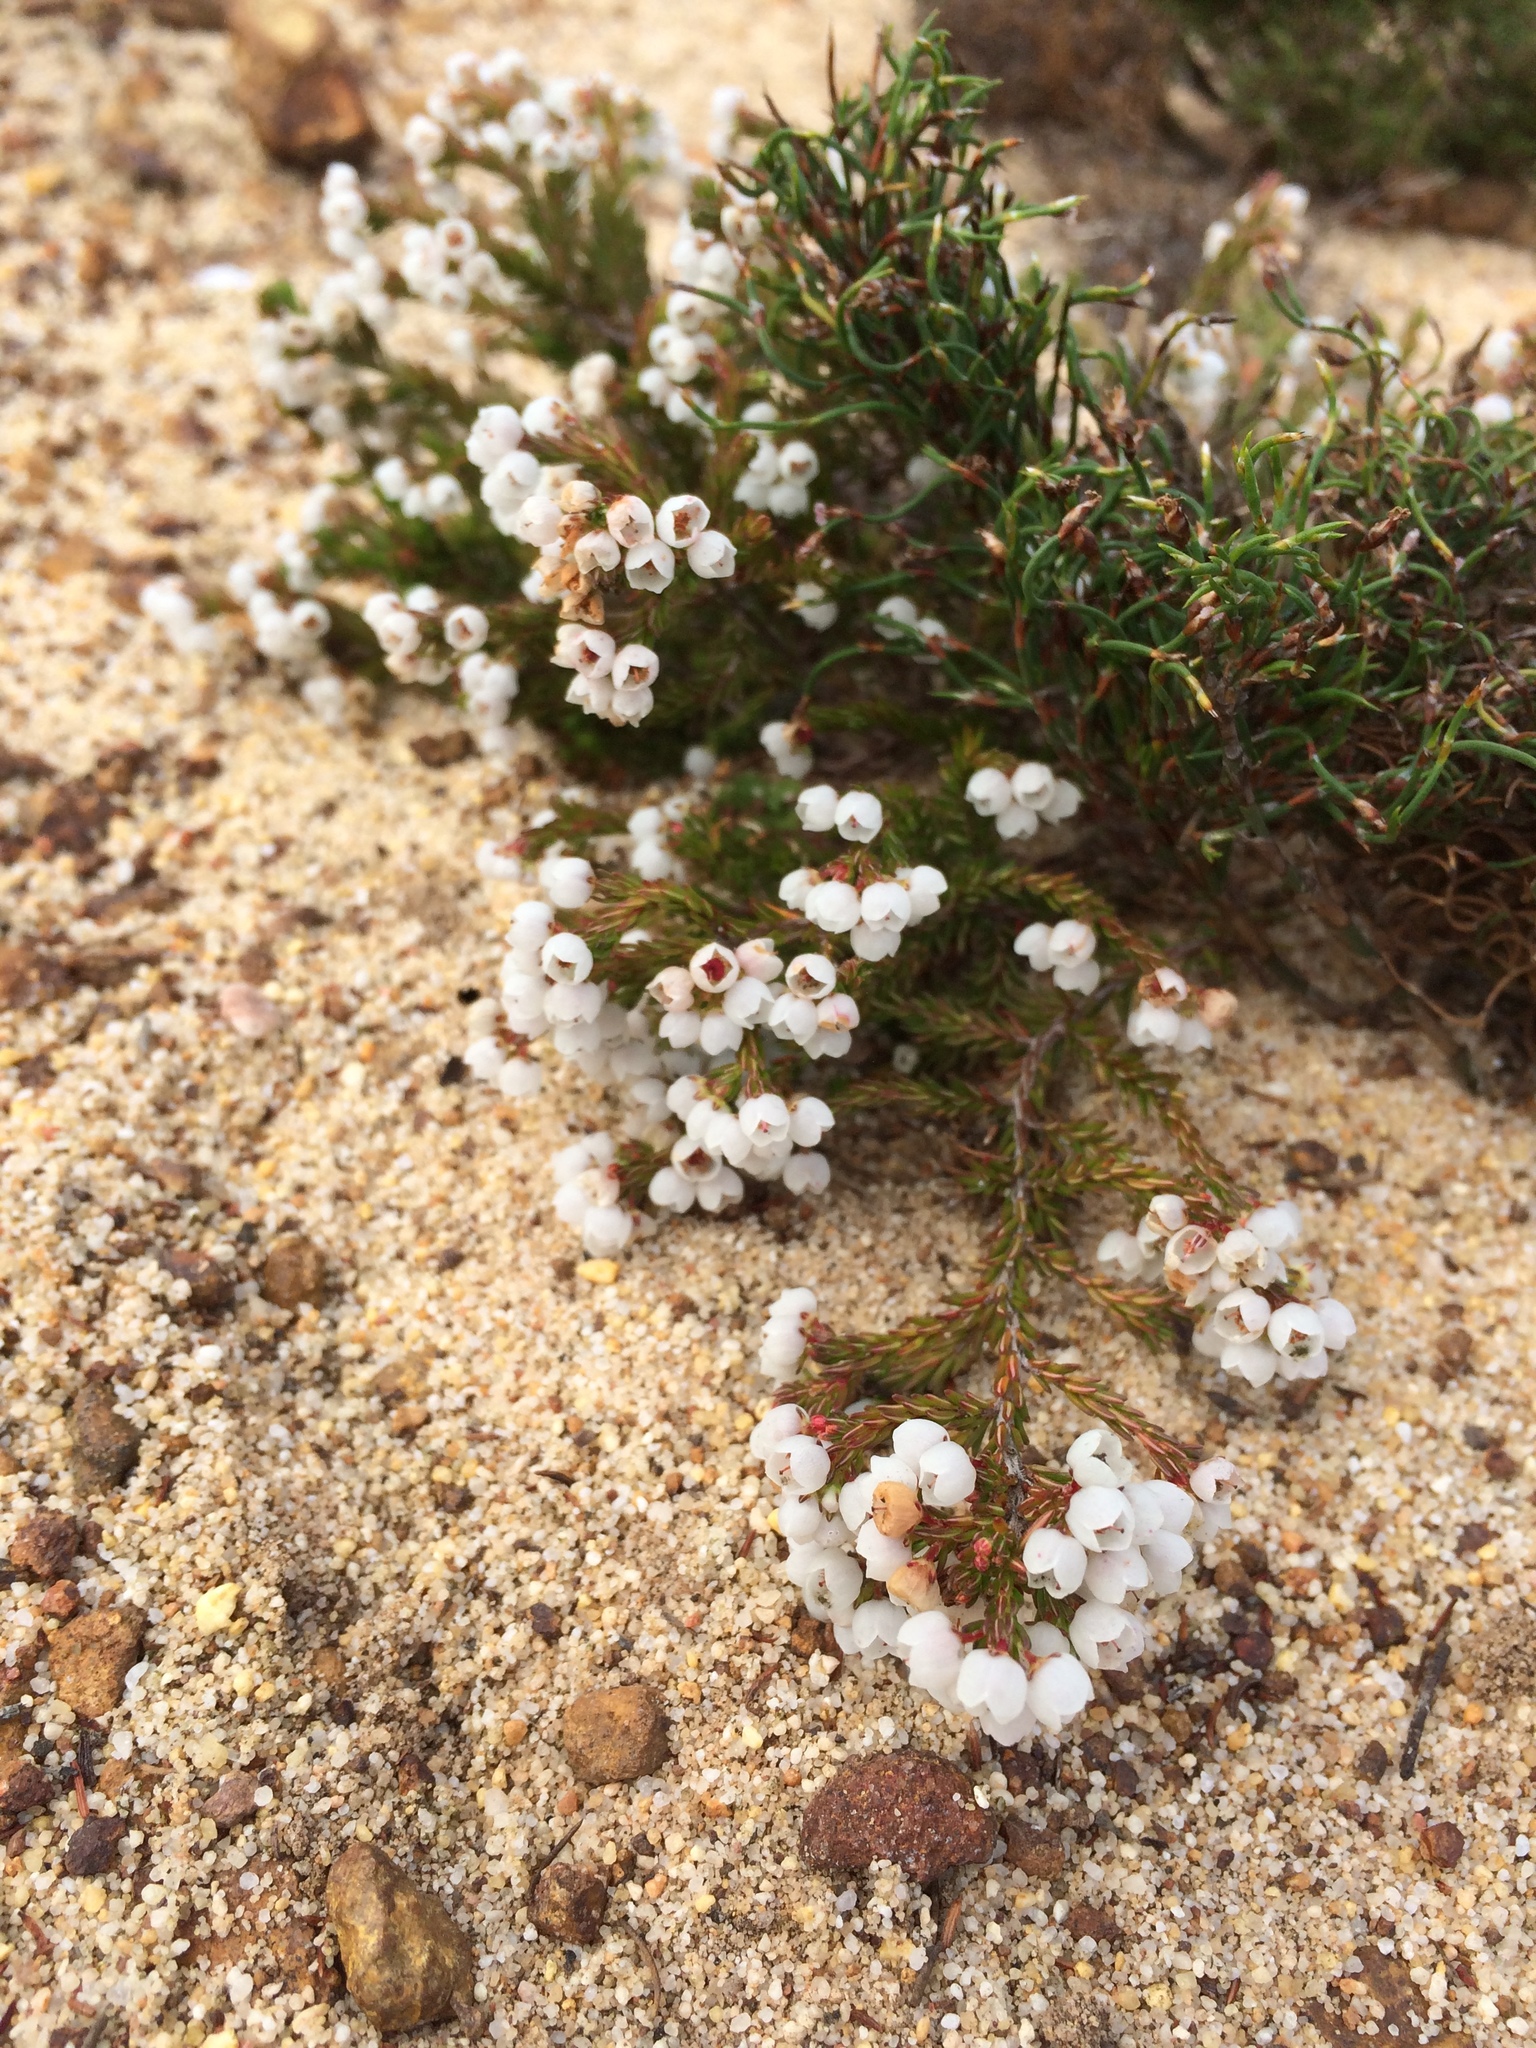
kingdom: Plantae
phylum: Tracheophyta
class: Magnoliopsida
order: Ericales
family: Ericaceae
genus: Erica
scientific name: Erica capensis
